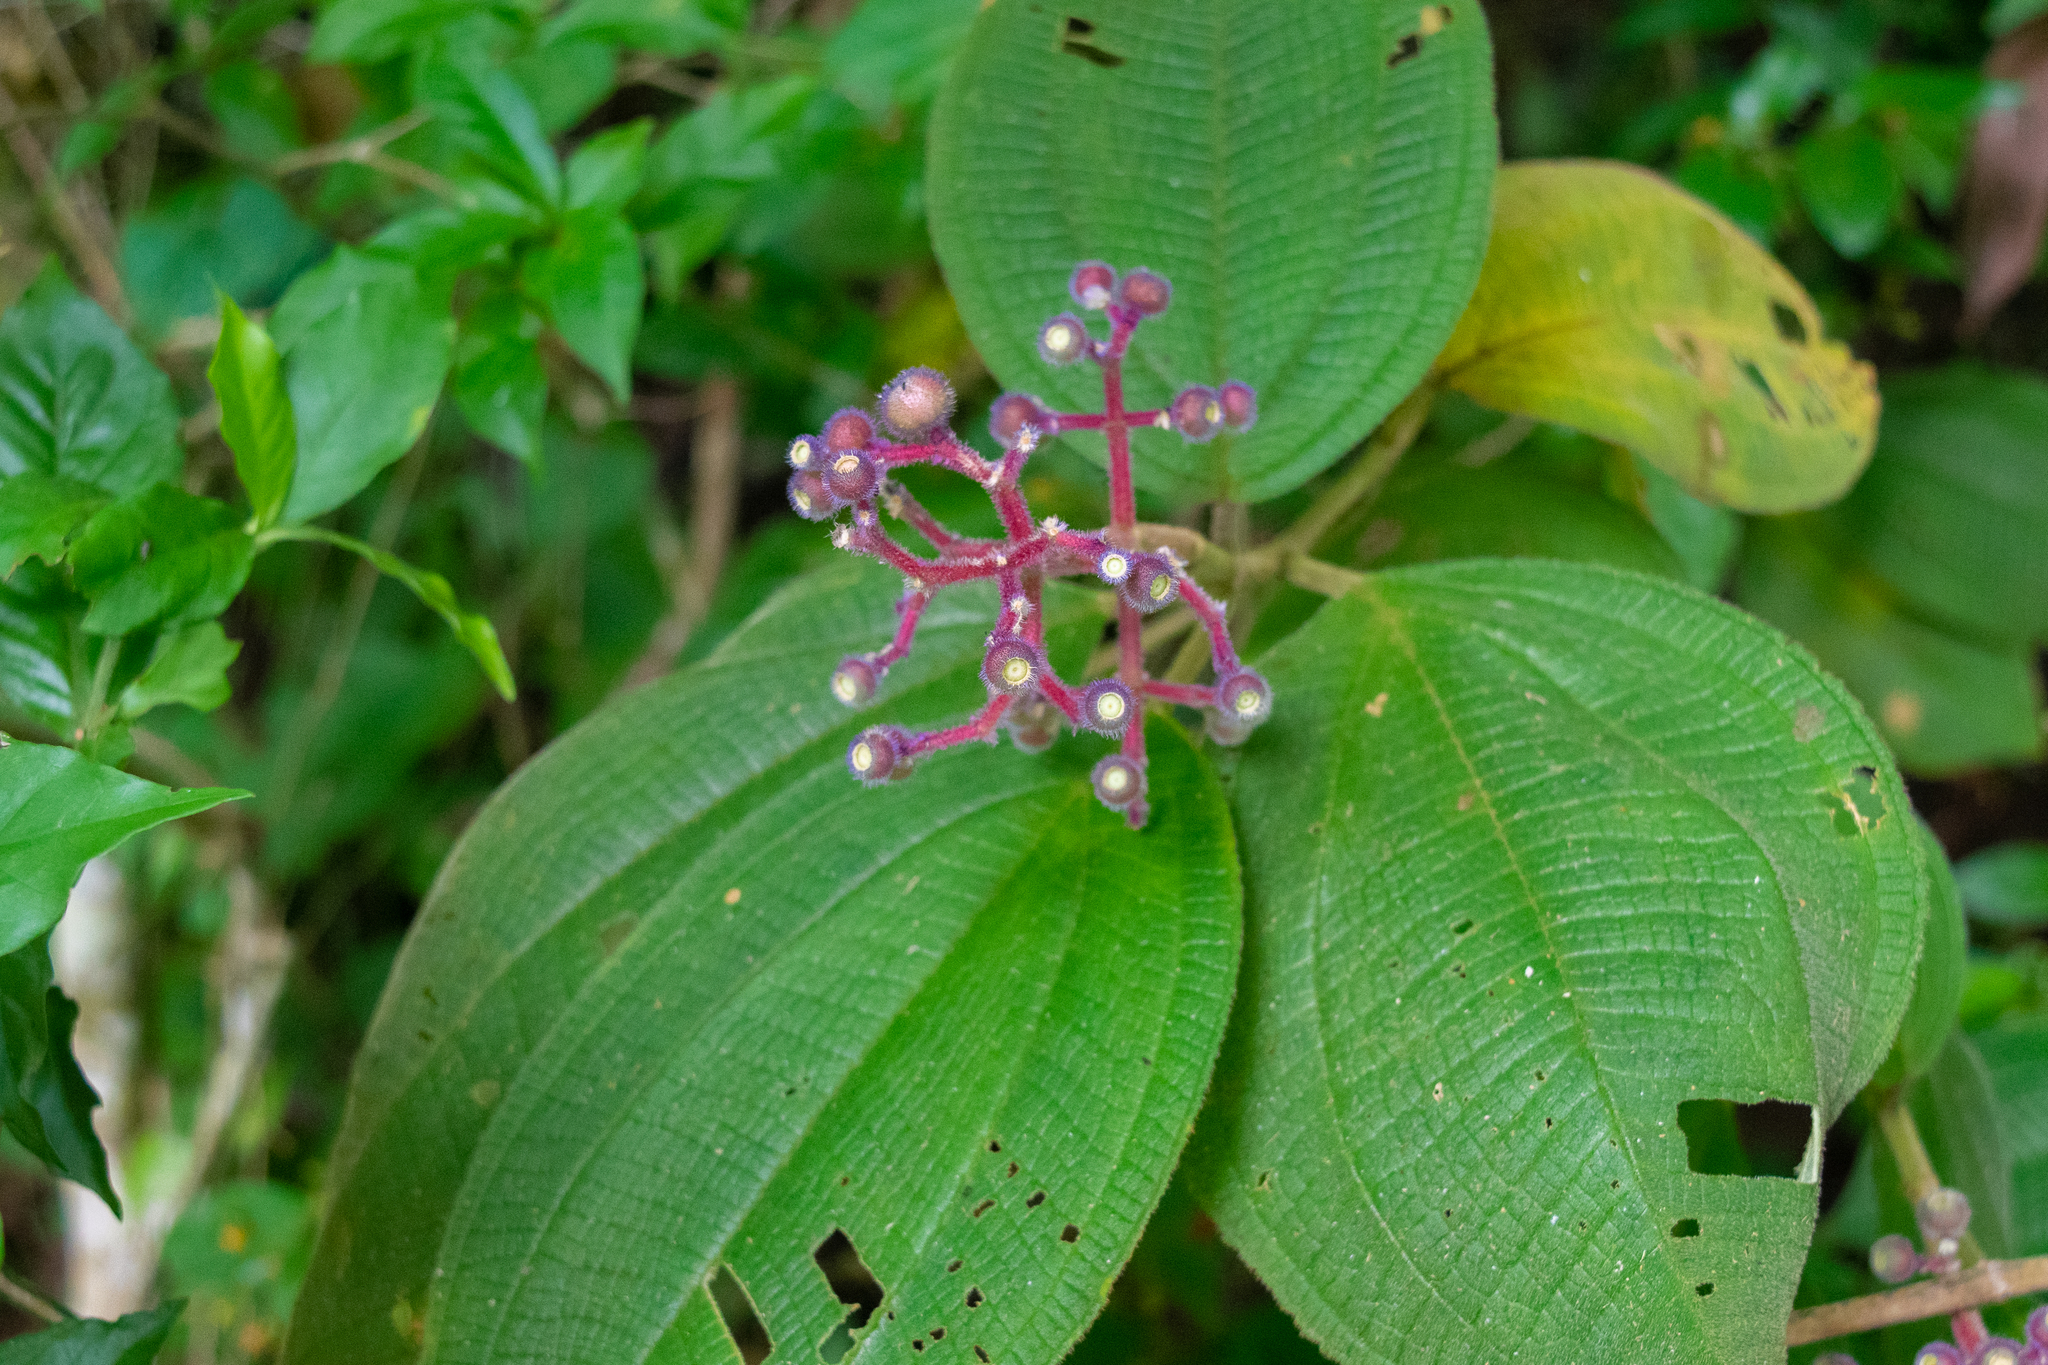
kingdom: Plantae
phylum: Tracheophyta
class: Magnoliopsida
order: Myrtales
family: Melastomataceae
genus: Miconia
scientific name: Miconia conospeciosa
